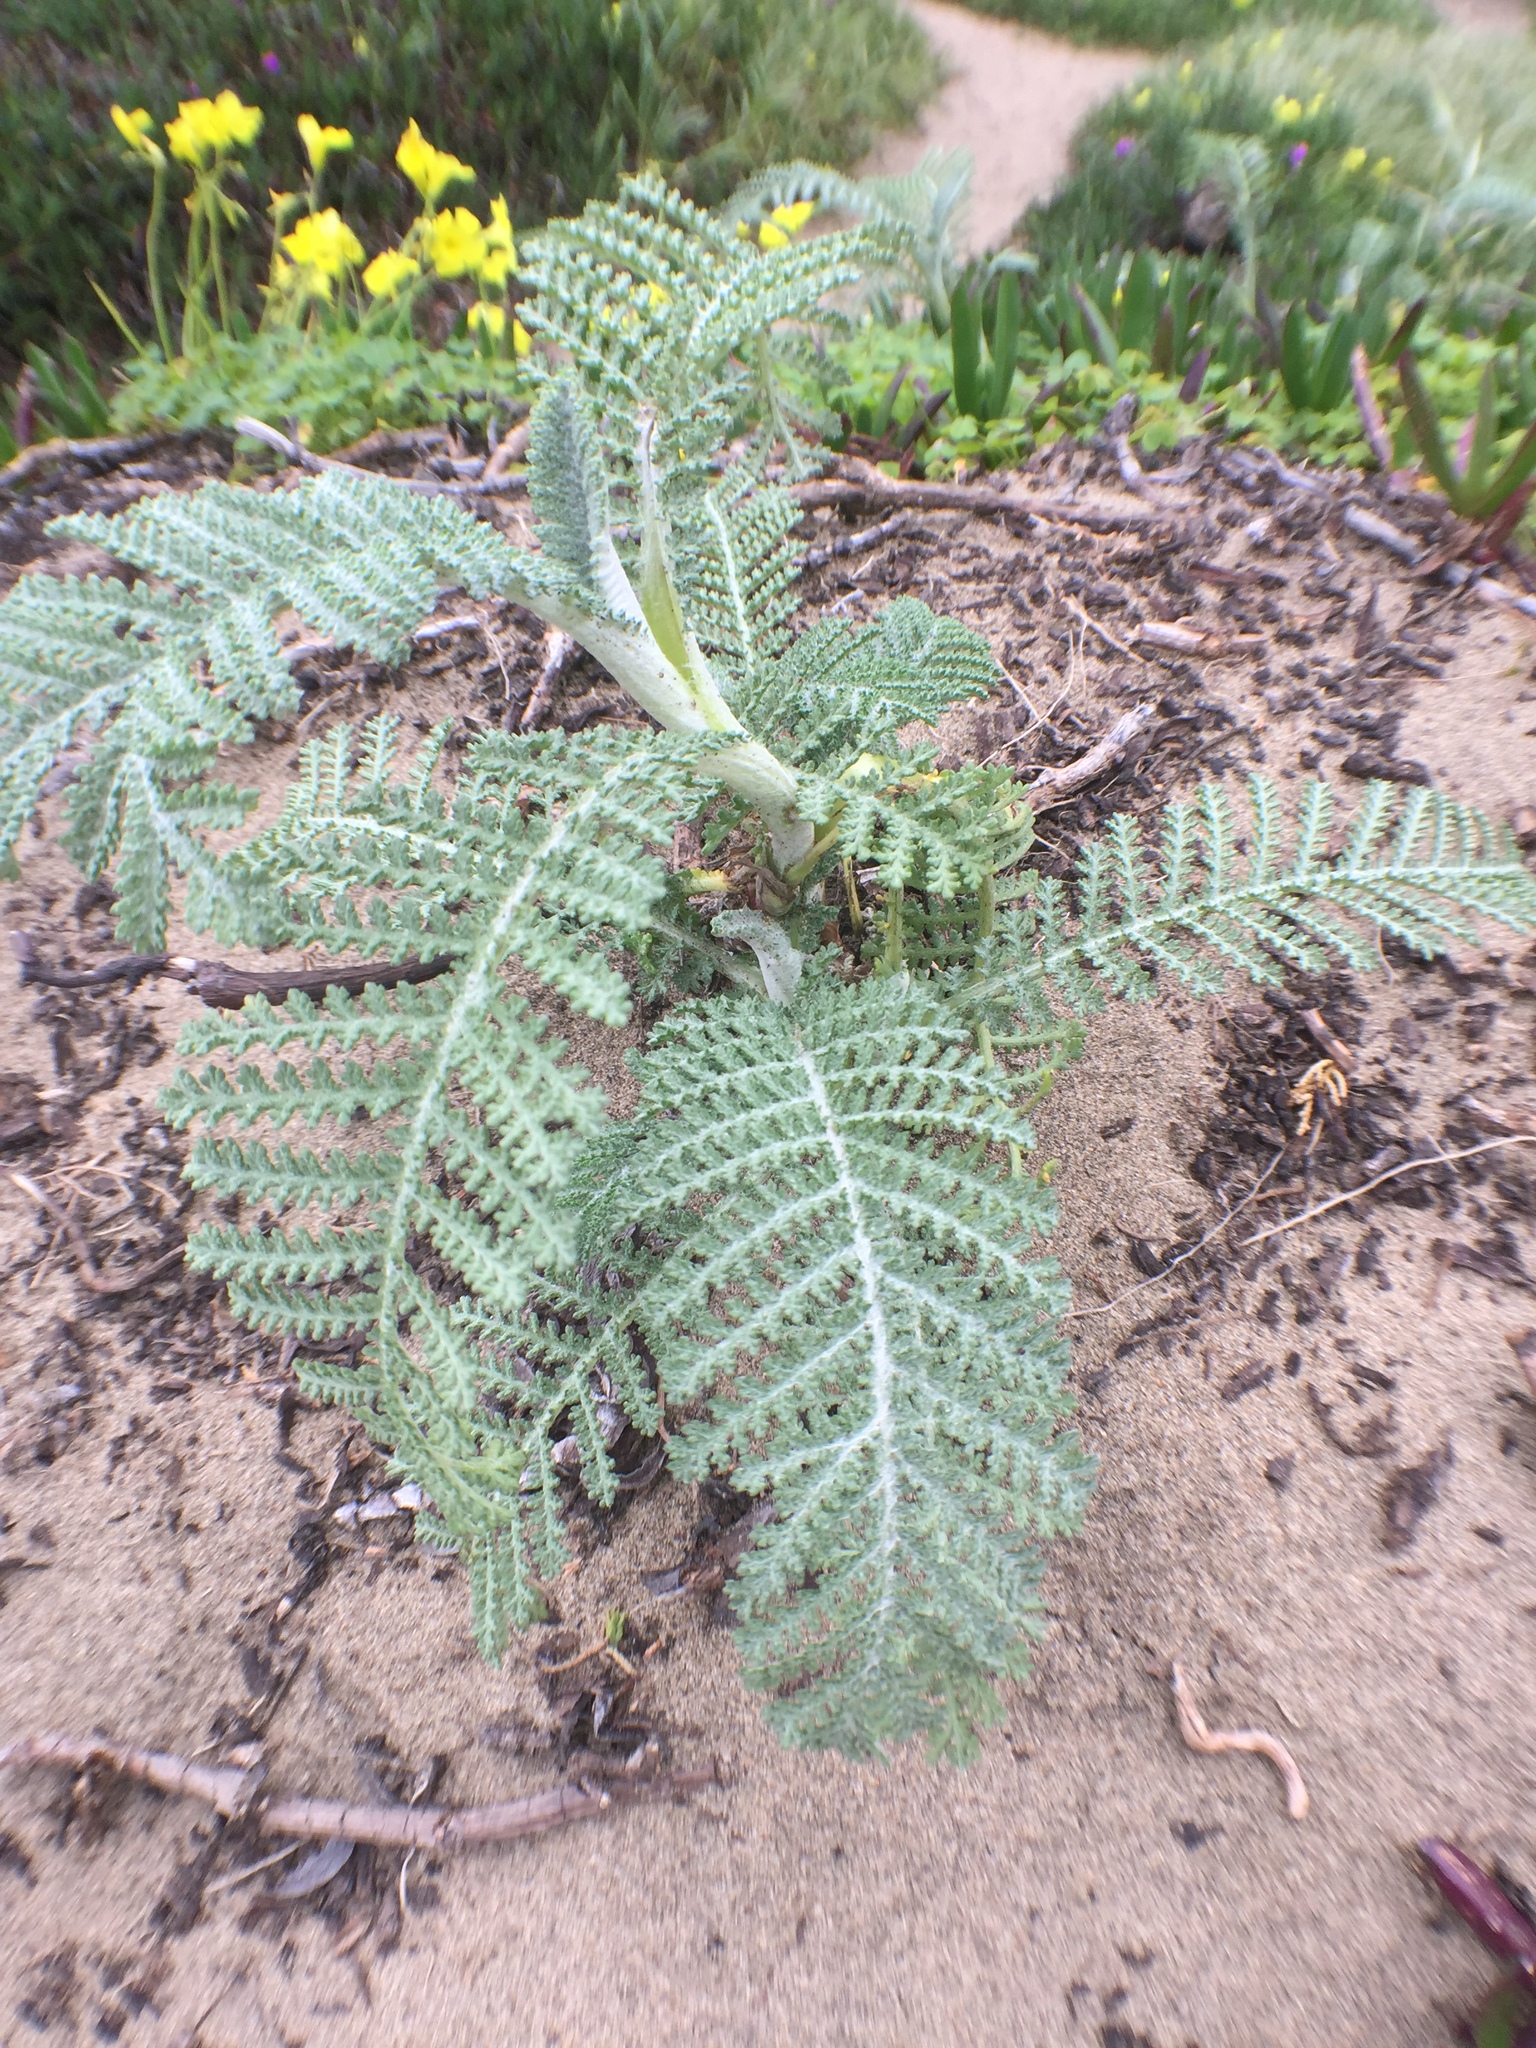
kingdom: Plantae
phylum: Tracheophyta
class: Magnoliopsida
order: Asterales
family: Asteraceae
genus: Tanacetum
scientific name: Tanacetum bipinnatum
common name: Dwarf tansy
